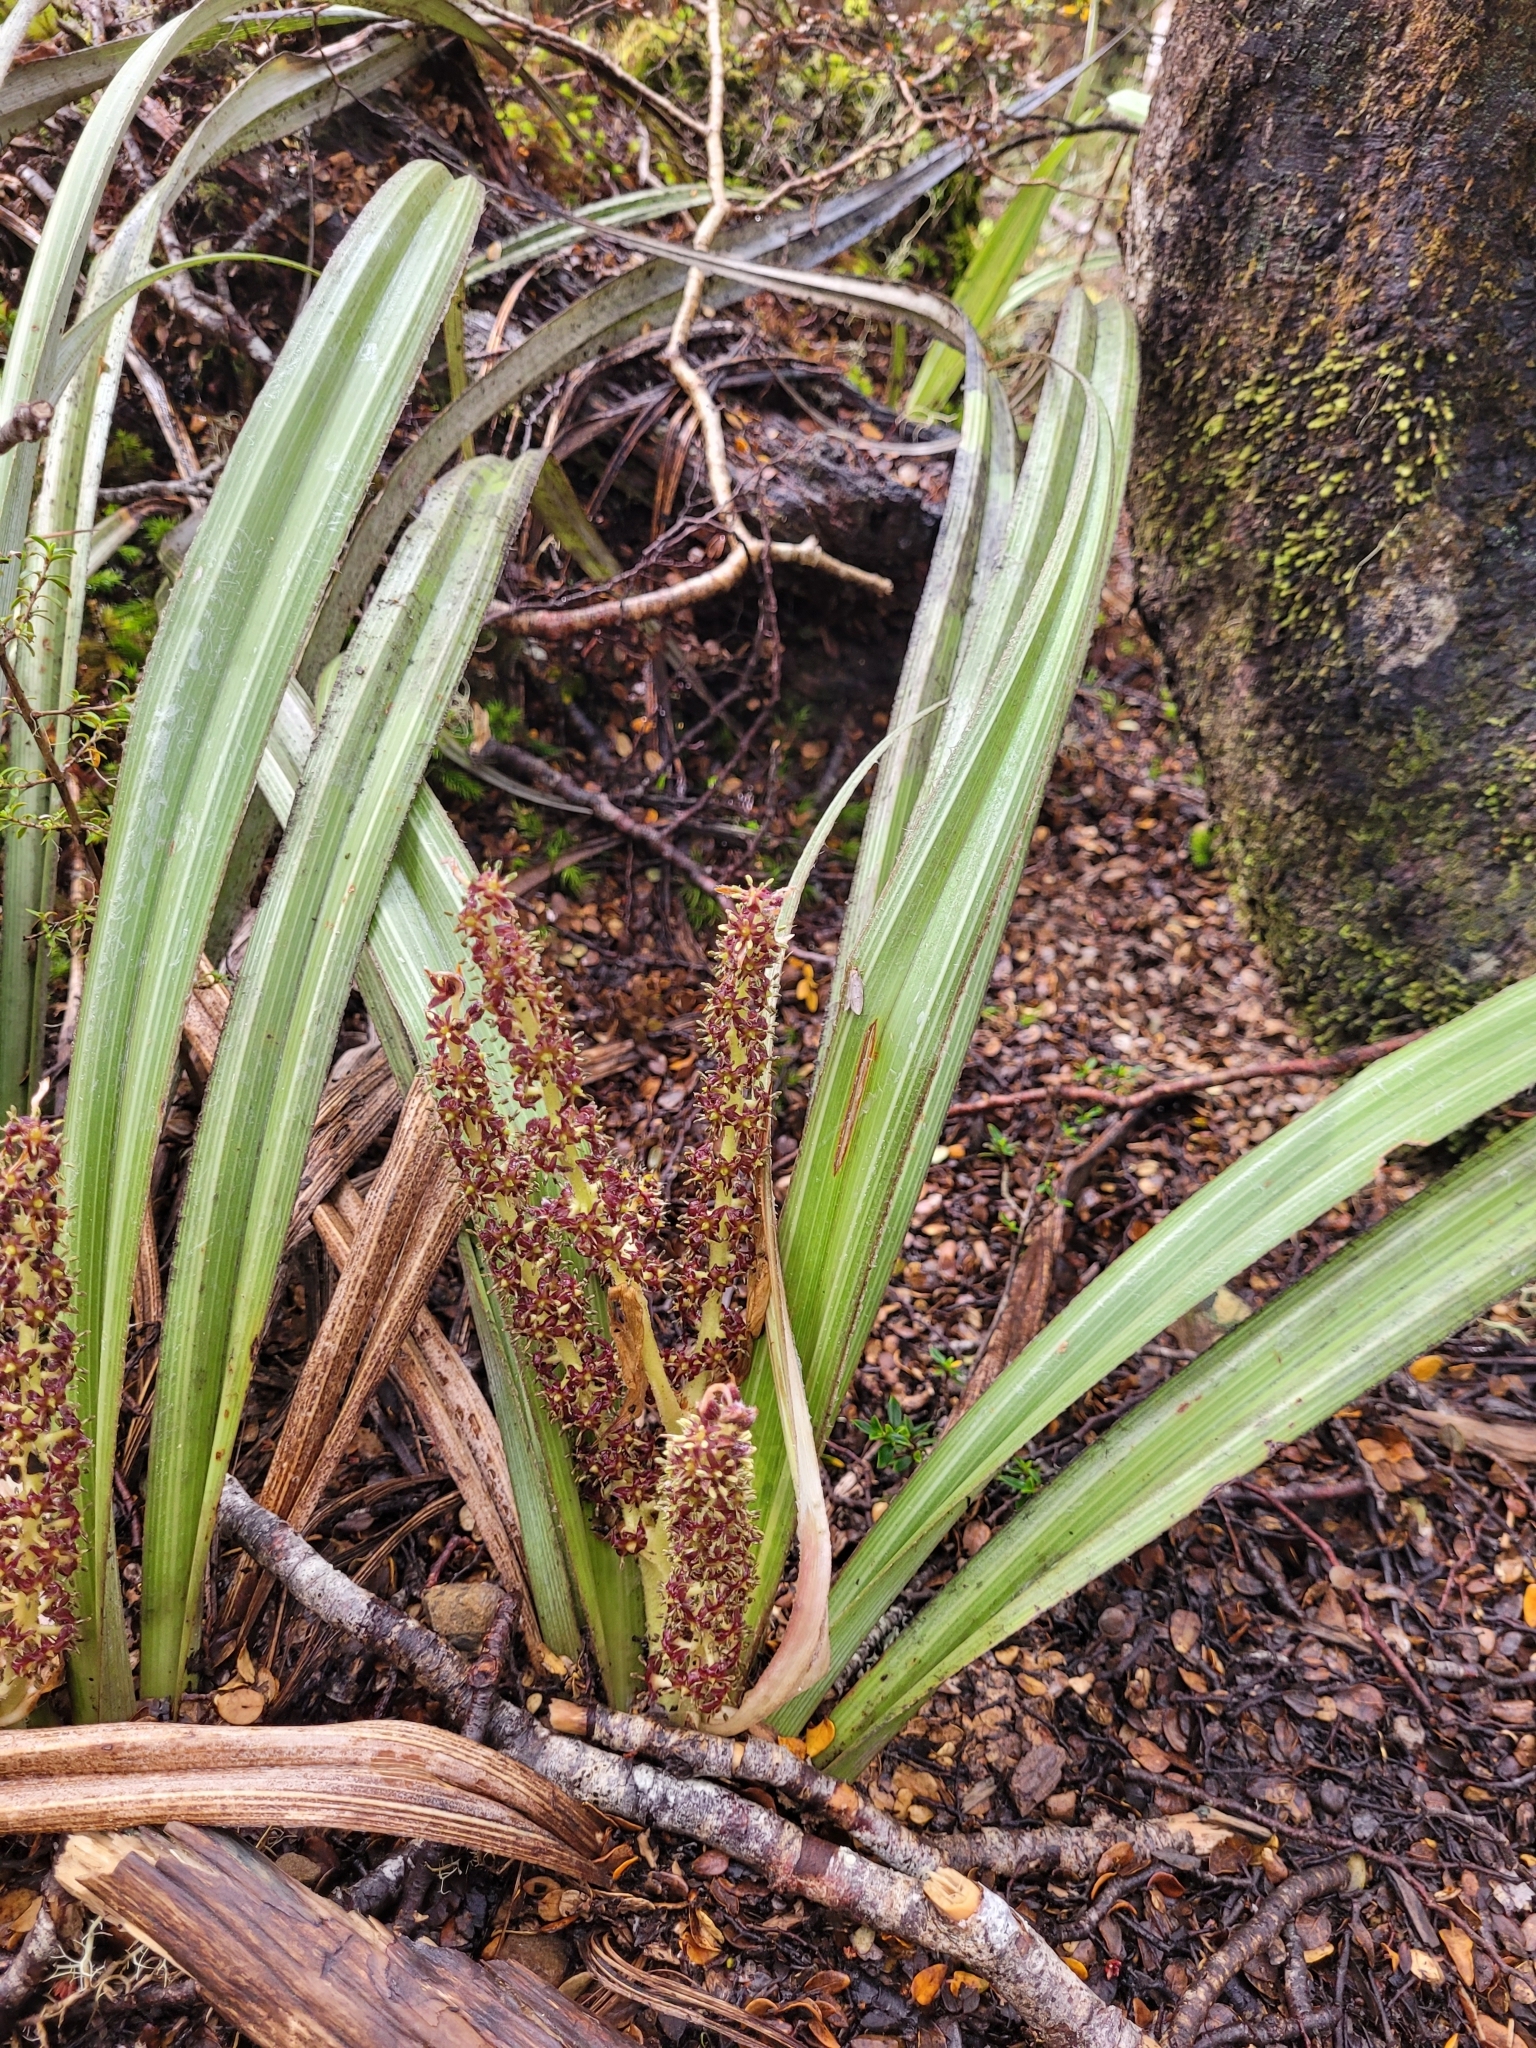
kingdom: Plantae
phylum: Tracheophyta
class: Liliopsida
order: Asparagales
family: Asteliaceae
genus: Astelia
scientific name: Astelia nervosa
